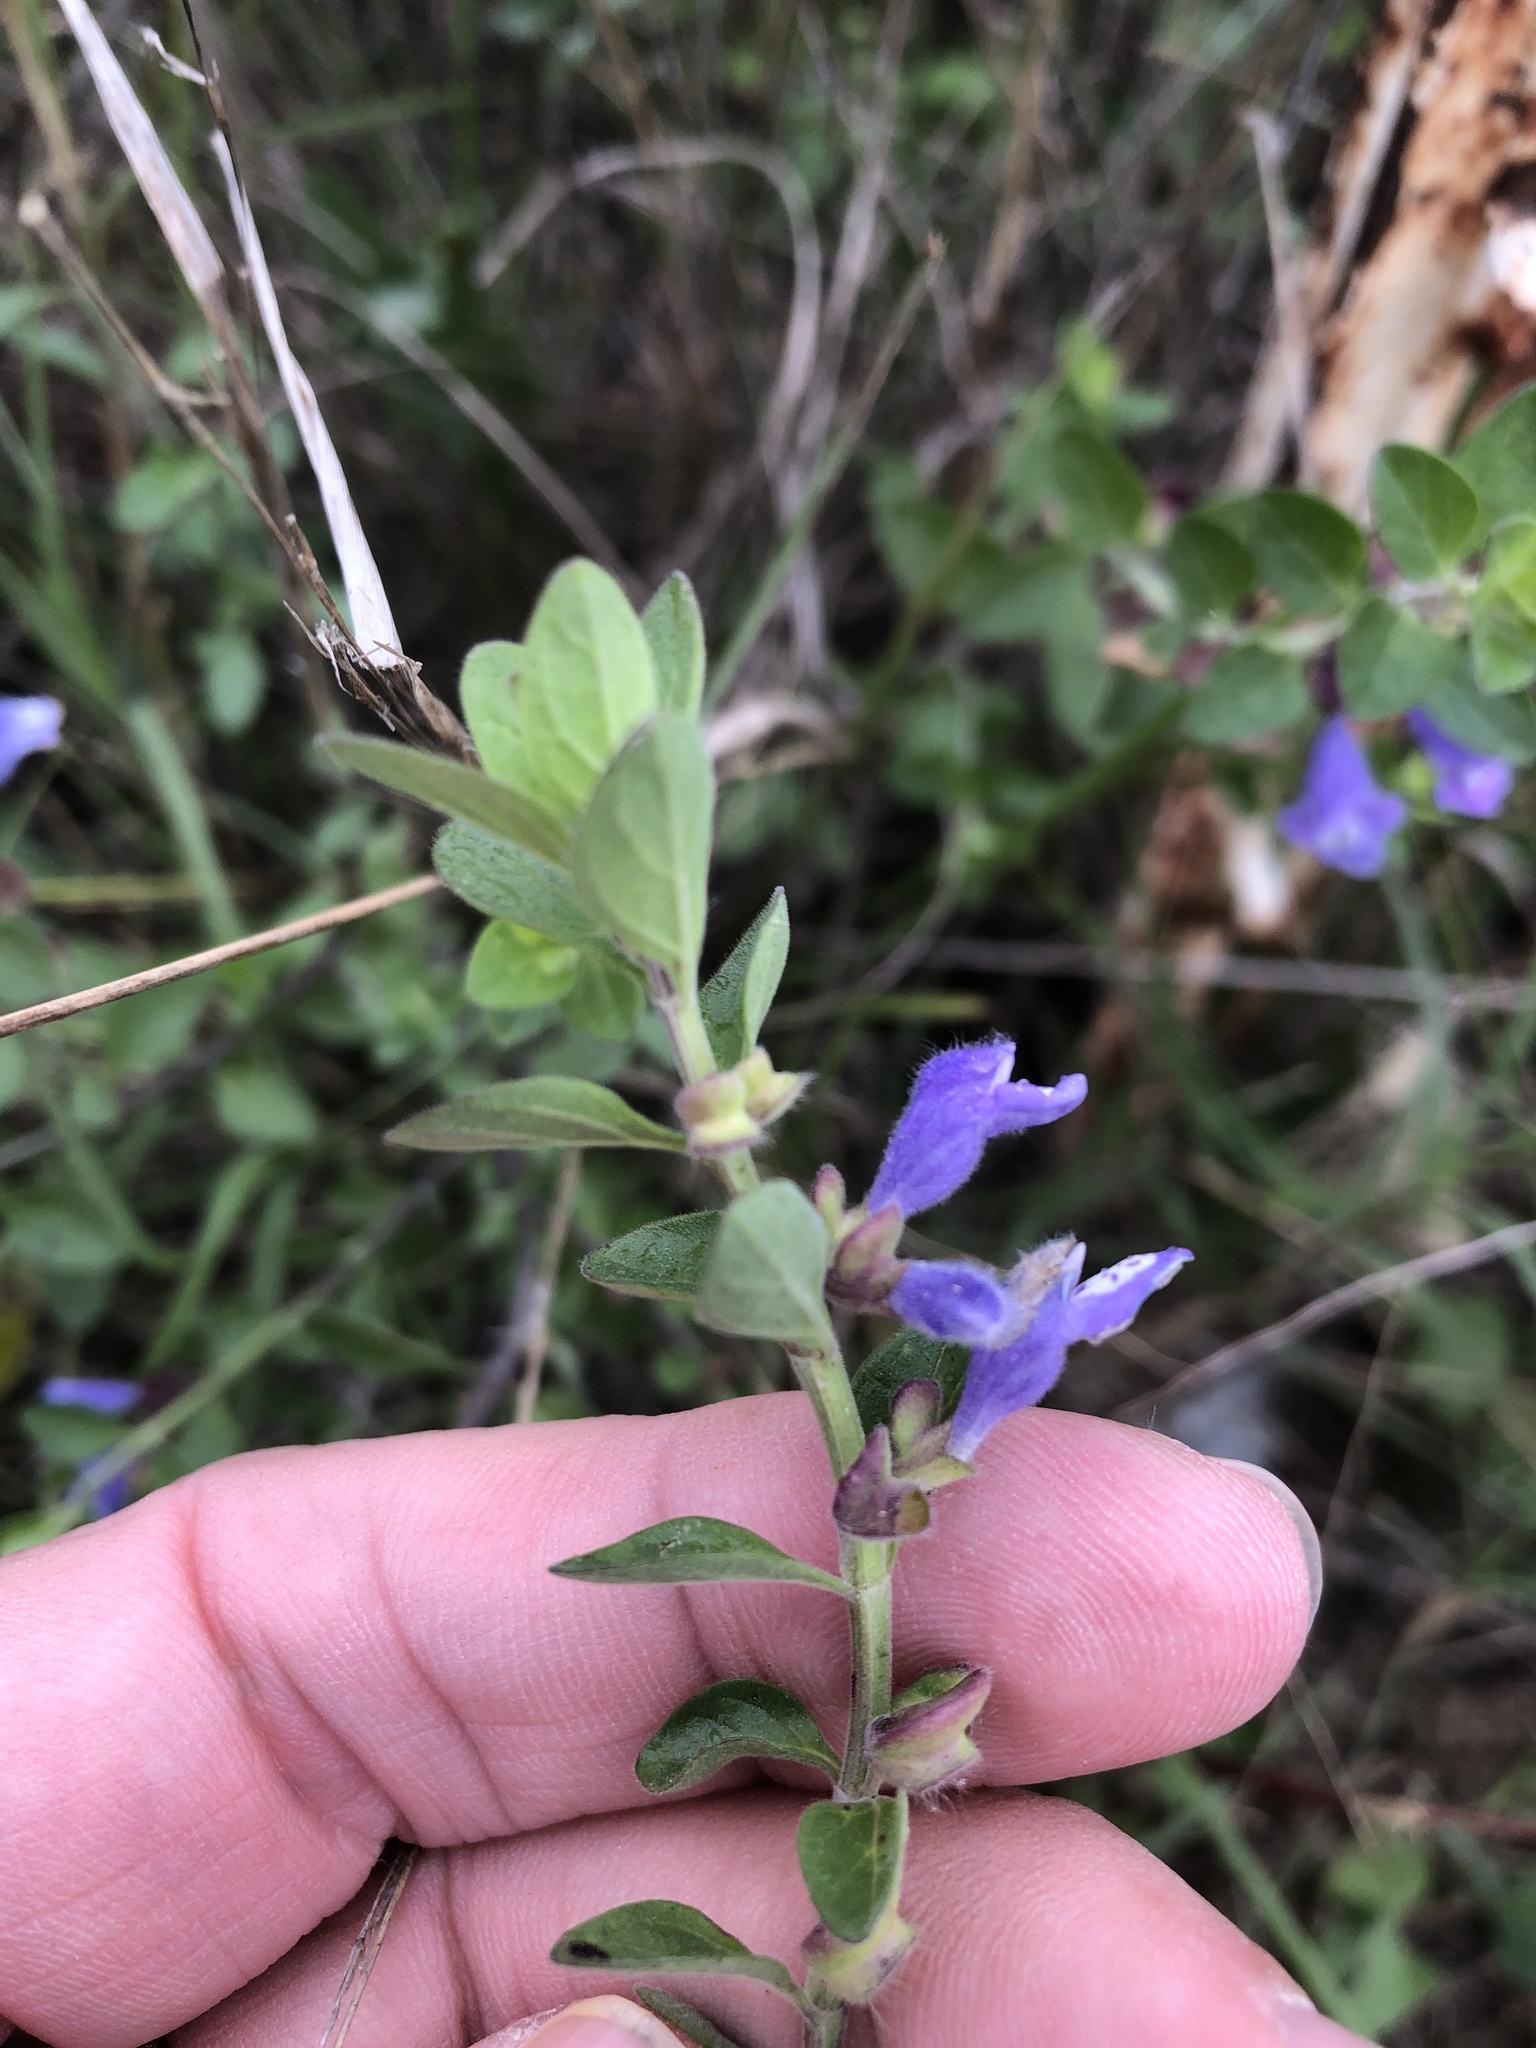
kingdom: Plantae
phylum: Tracheophyta
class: Magnoliopsida
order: Lamiales
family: Lamiaceae
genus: Scutellaria
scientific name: Scutellaria drummondii
